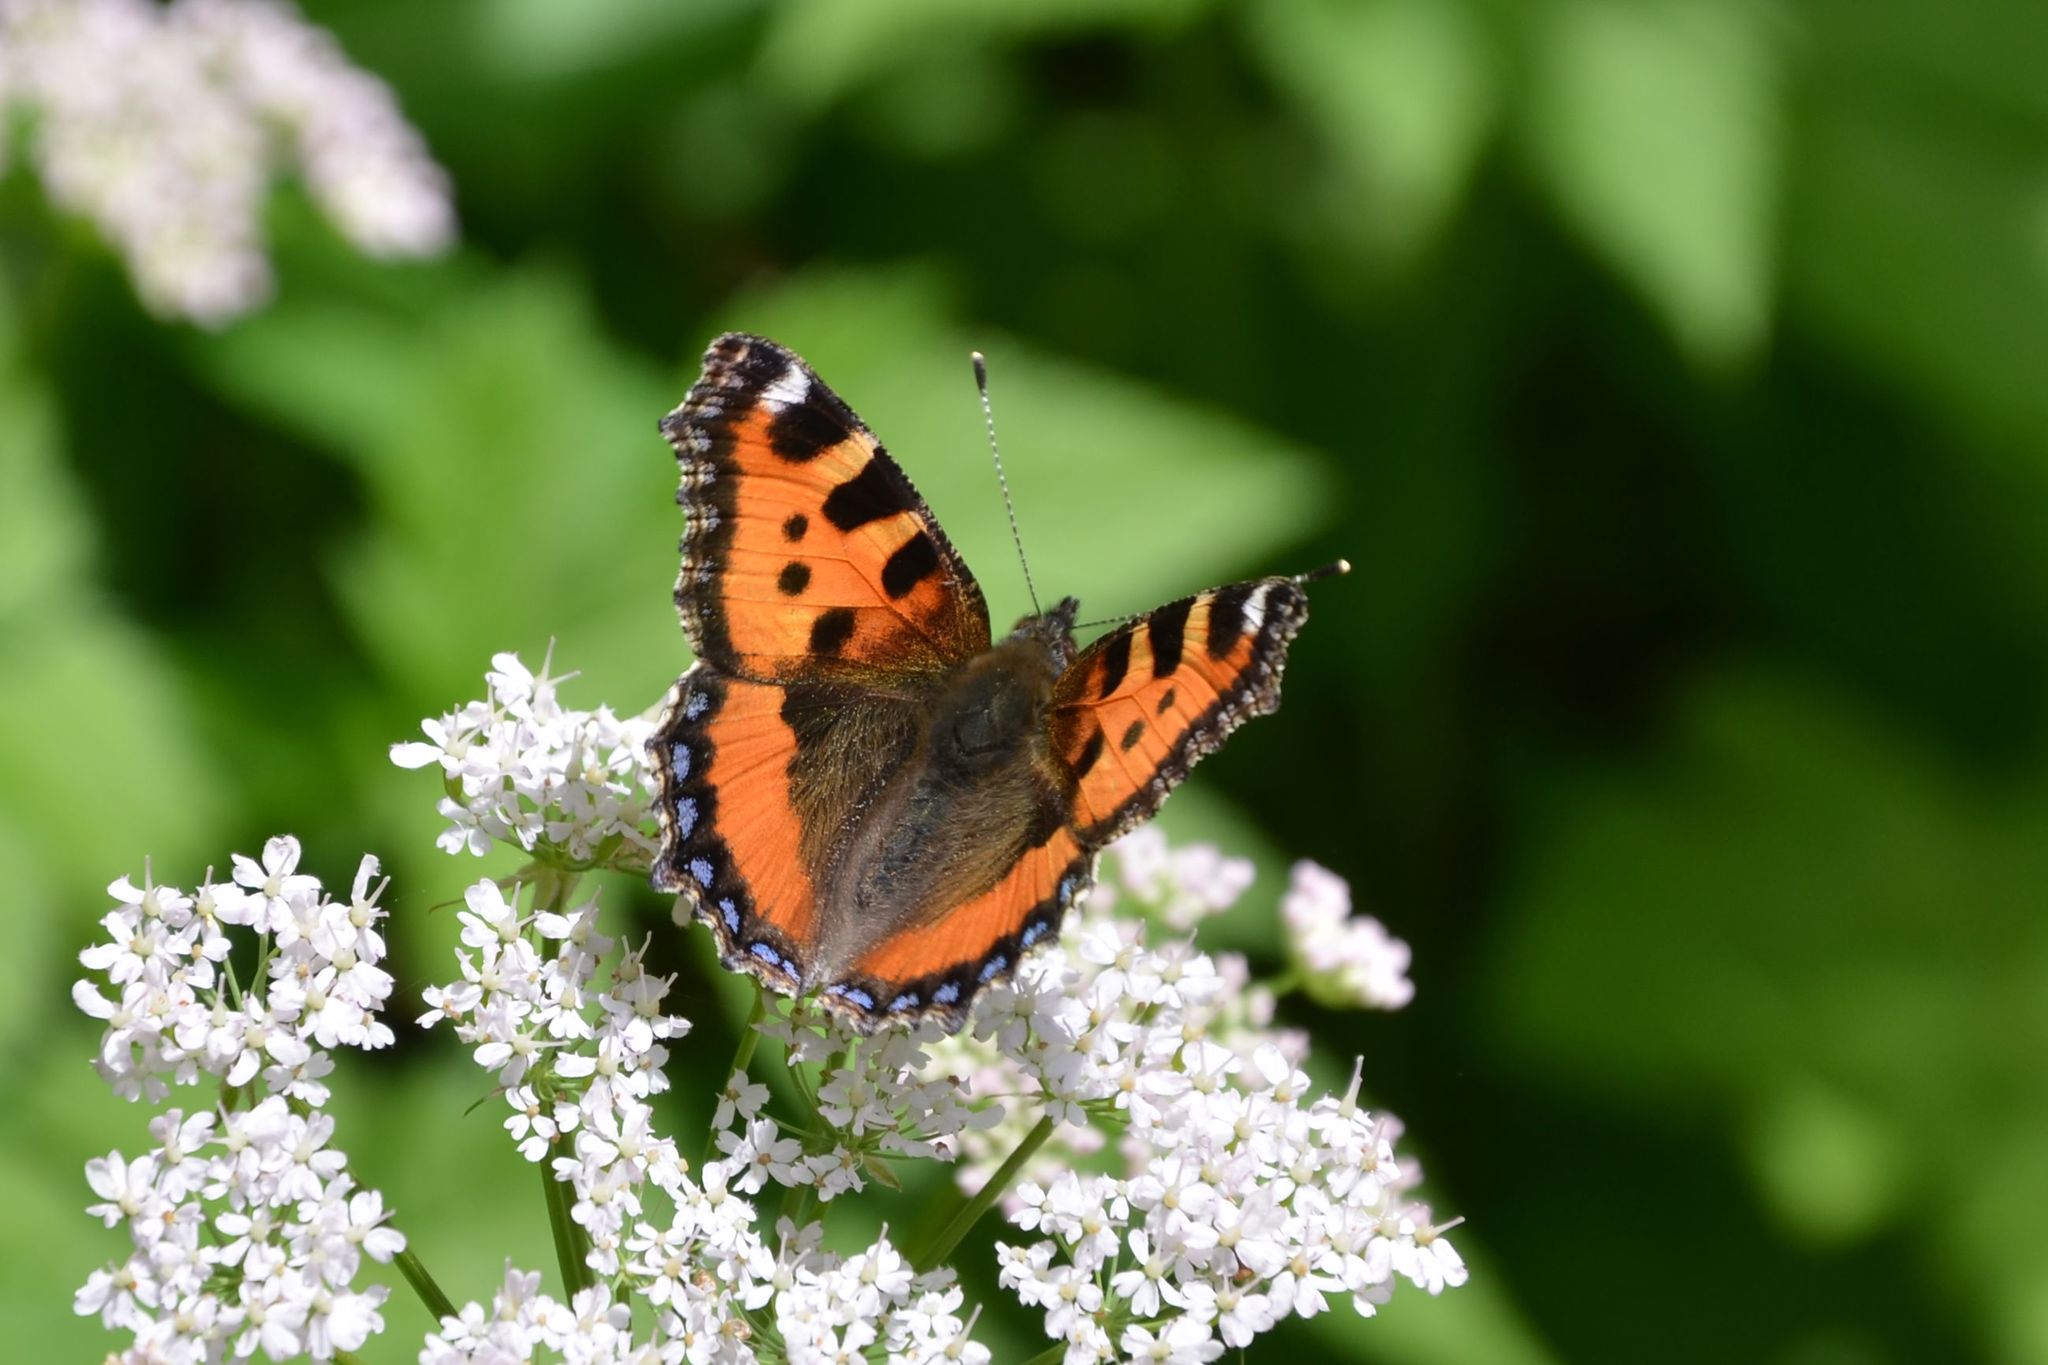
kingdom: Animalia
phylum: Arthropoda
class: Insecta
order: Lepidoptera
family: Nymphalidae
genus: Aglais
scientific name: Aglais urticae
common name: Small tortoiseshell
